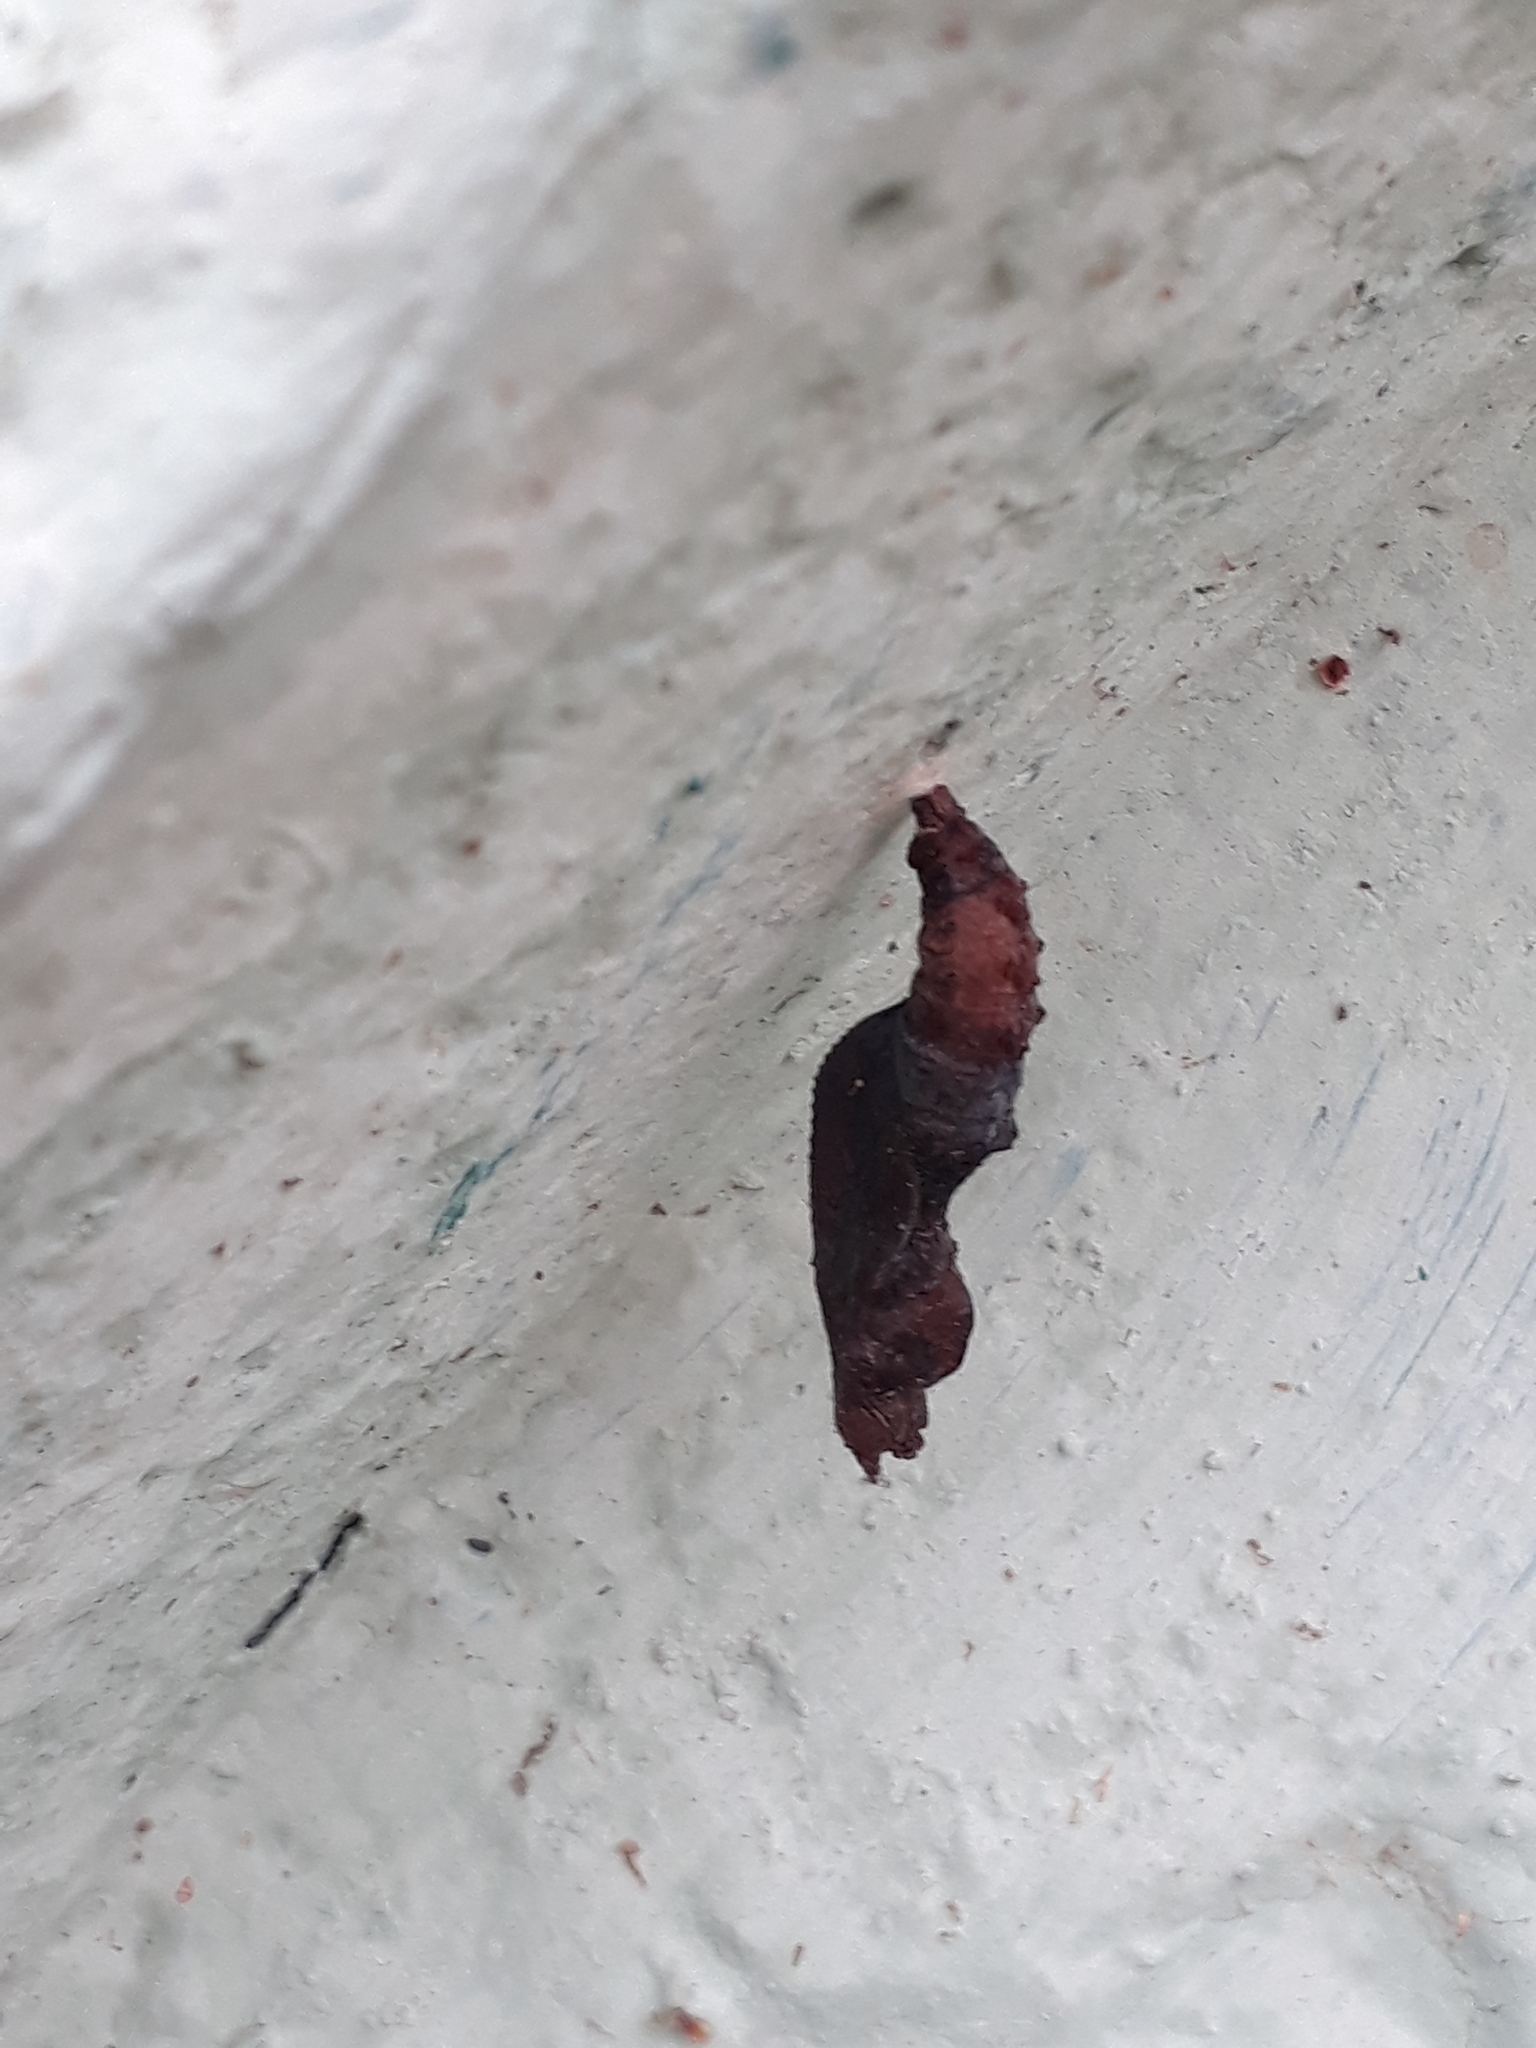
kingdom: Animalia
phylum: Arthropoda
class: Insecta
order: Lepidoptera
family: Nymphalidae
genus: Dione
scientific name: Dione vanillae
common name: Gulf fritillary
